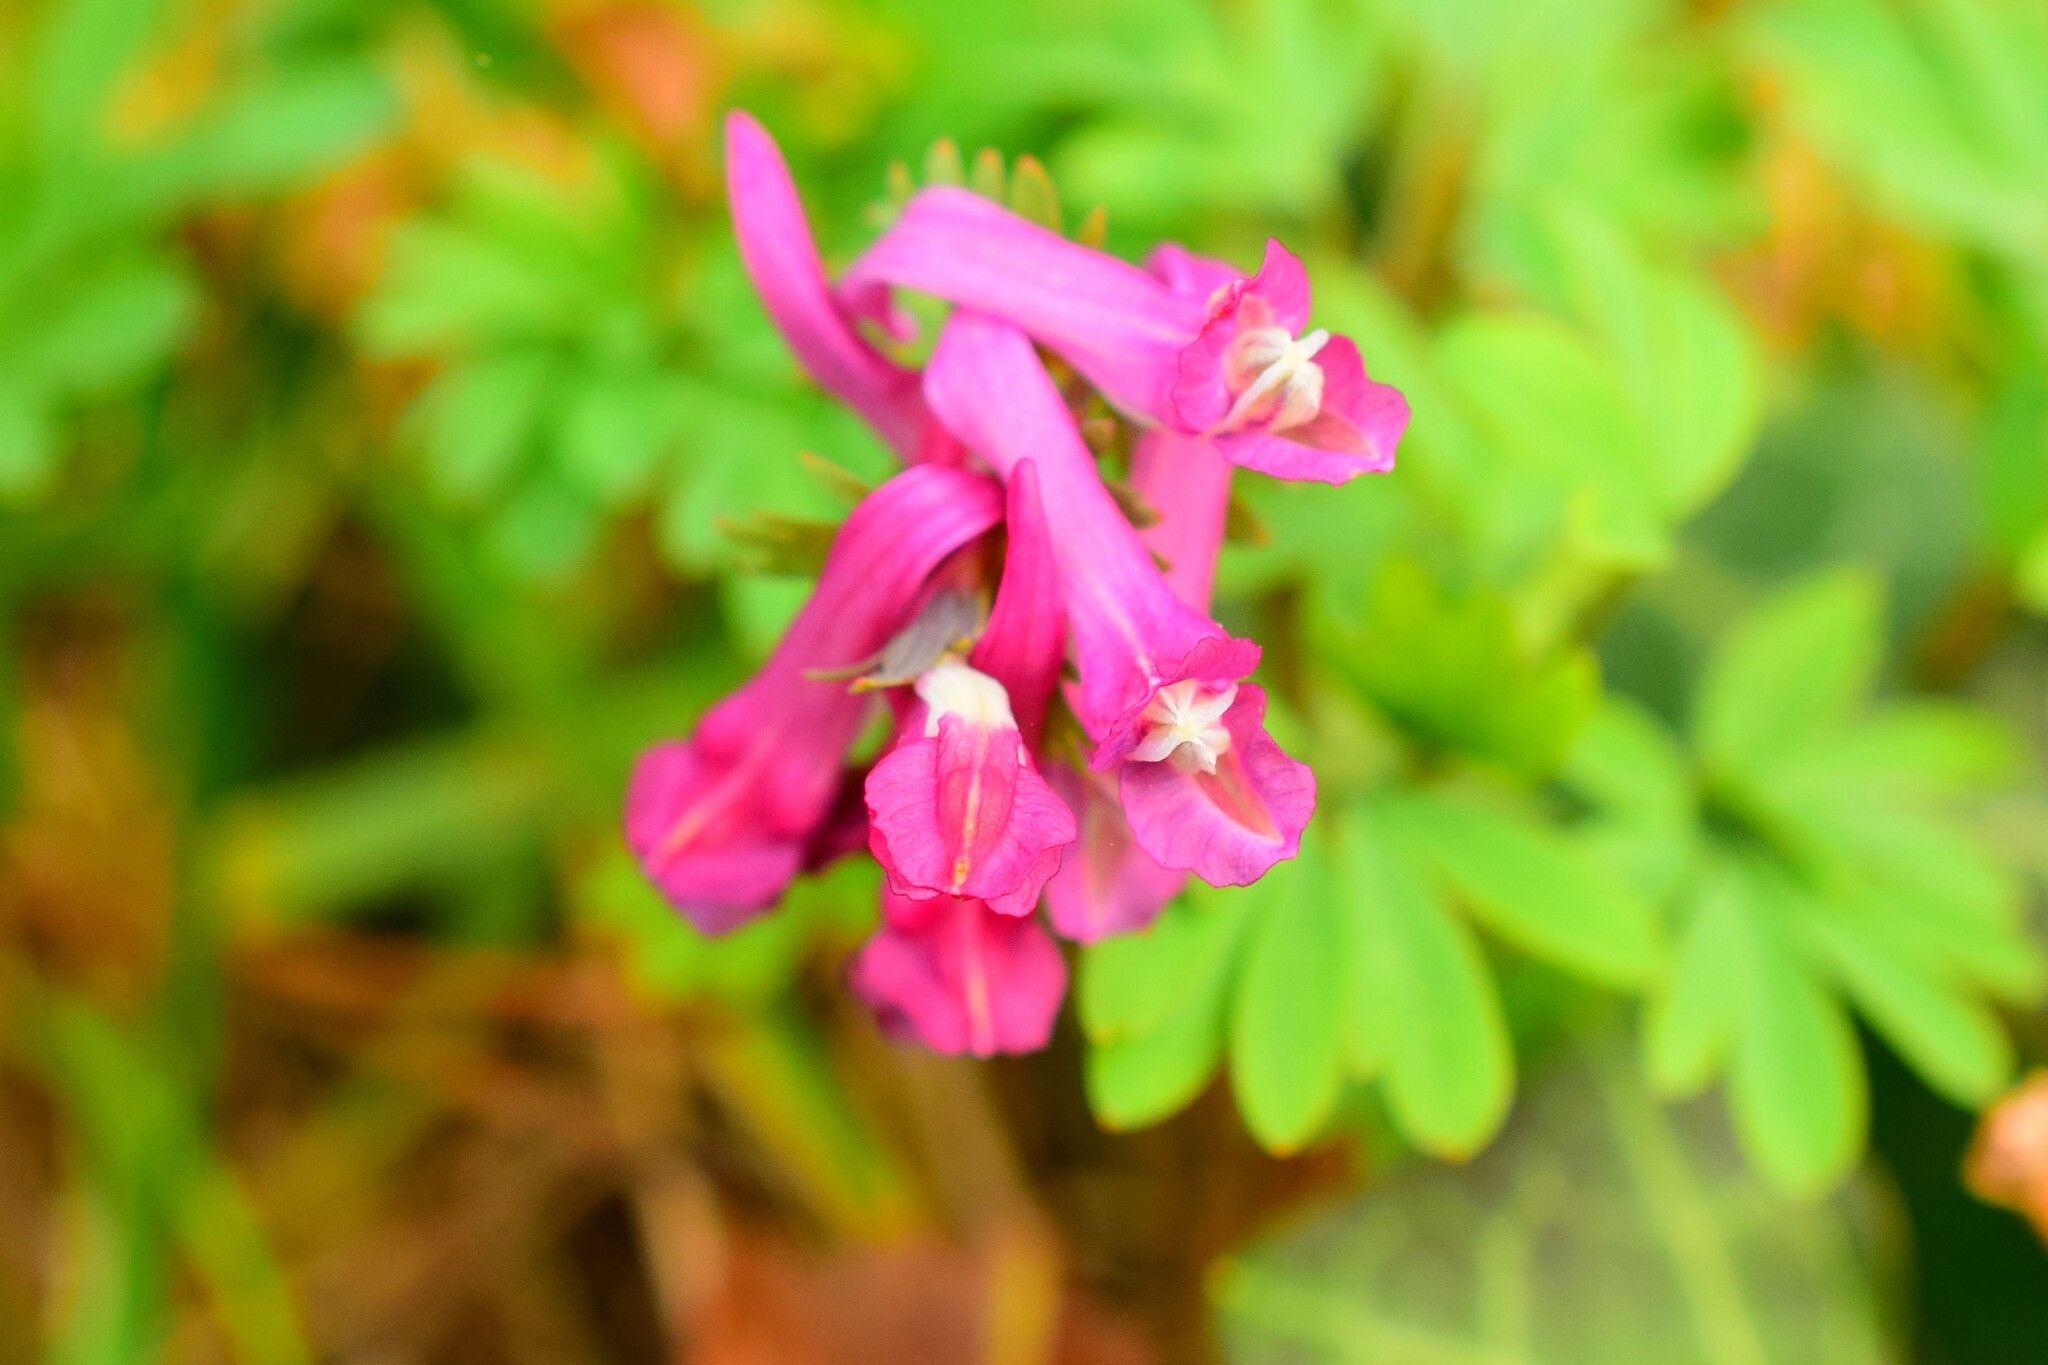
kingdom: Plantae
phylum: Tracheophyta
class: Magnoliopsida
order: Ranunculales
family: Papaveraceae
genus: Corydalis
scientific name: Corydalis solida
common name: Bird-in-a-bush
